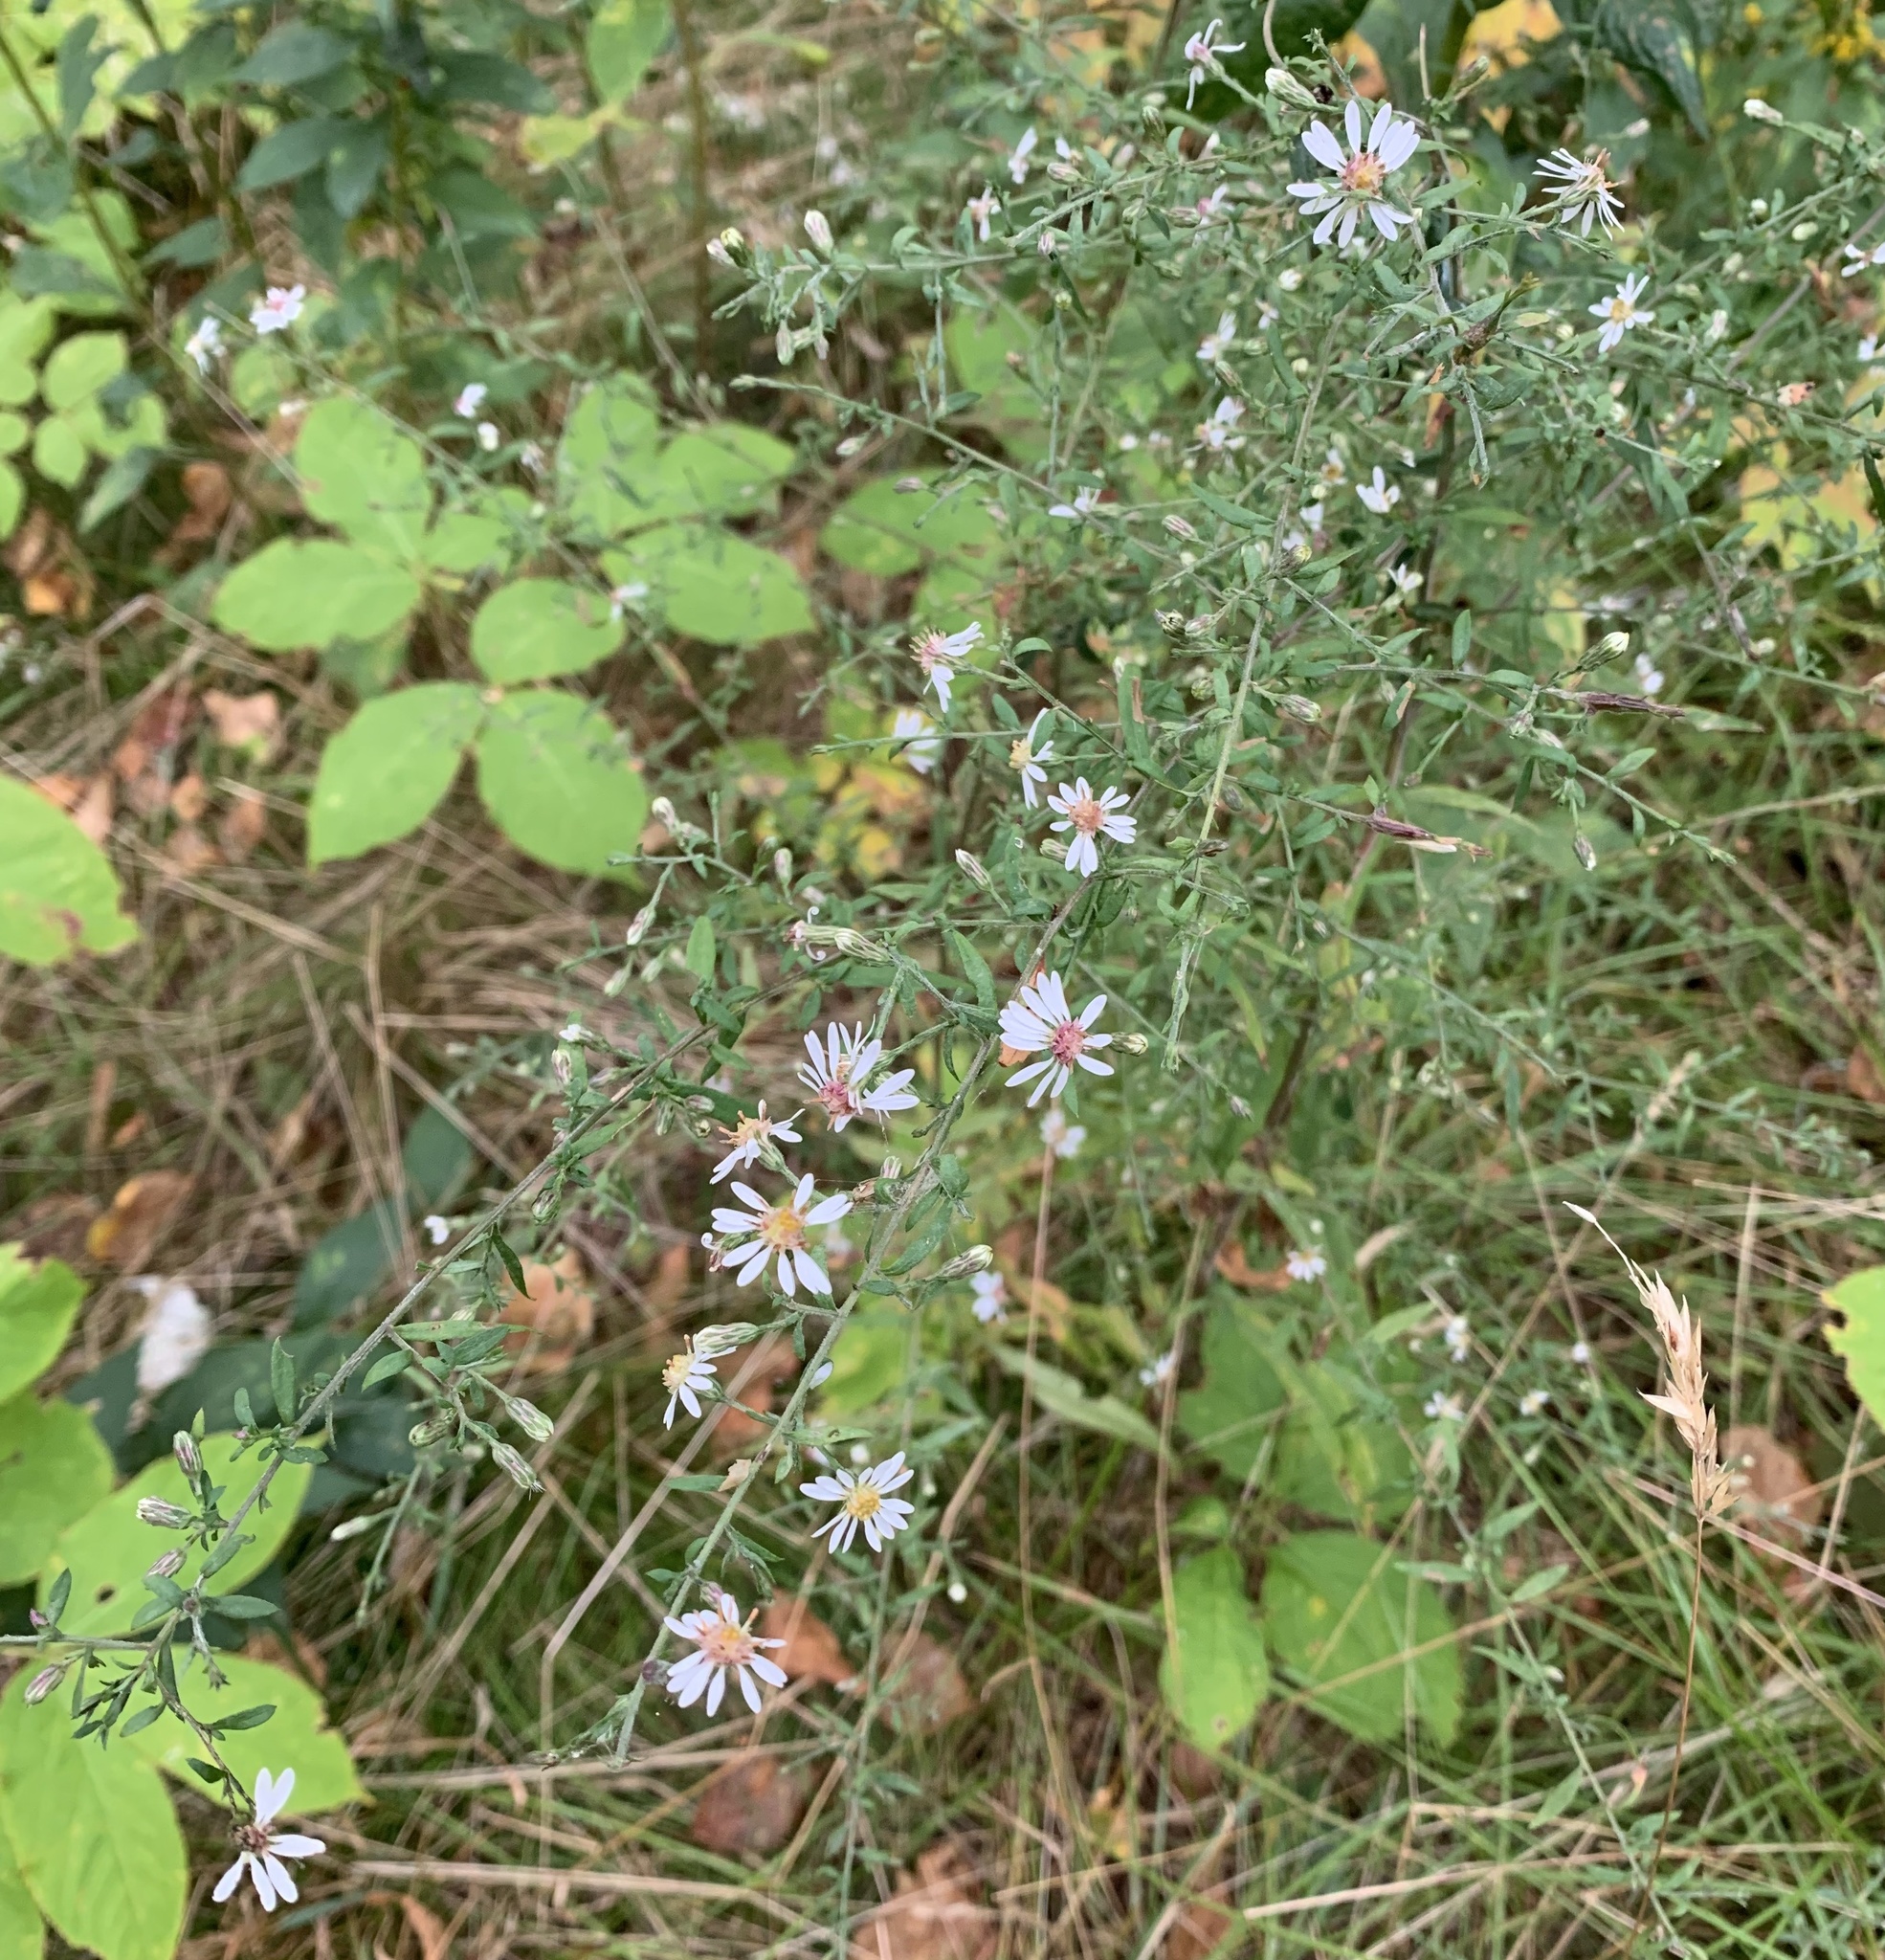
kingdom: Plantae
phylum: Tracheophyta
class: Magnoliopsida
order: Asterales
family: Asteraceae
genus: Symphyotrichum
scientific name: Symphyotrichum lateriflorum
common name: Calico aster
